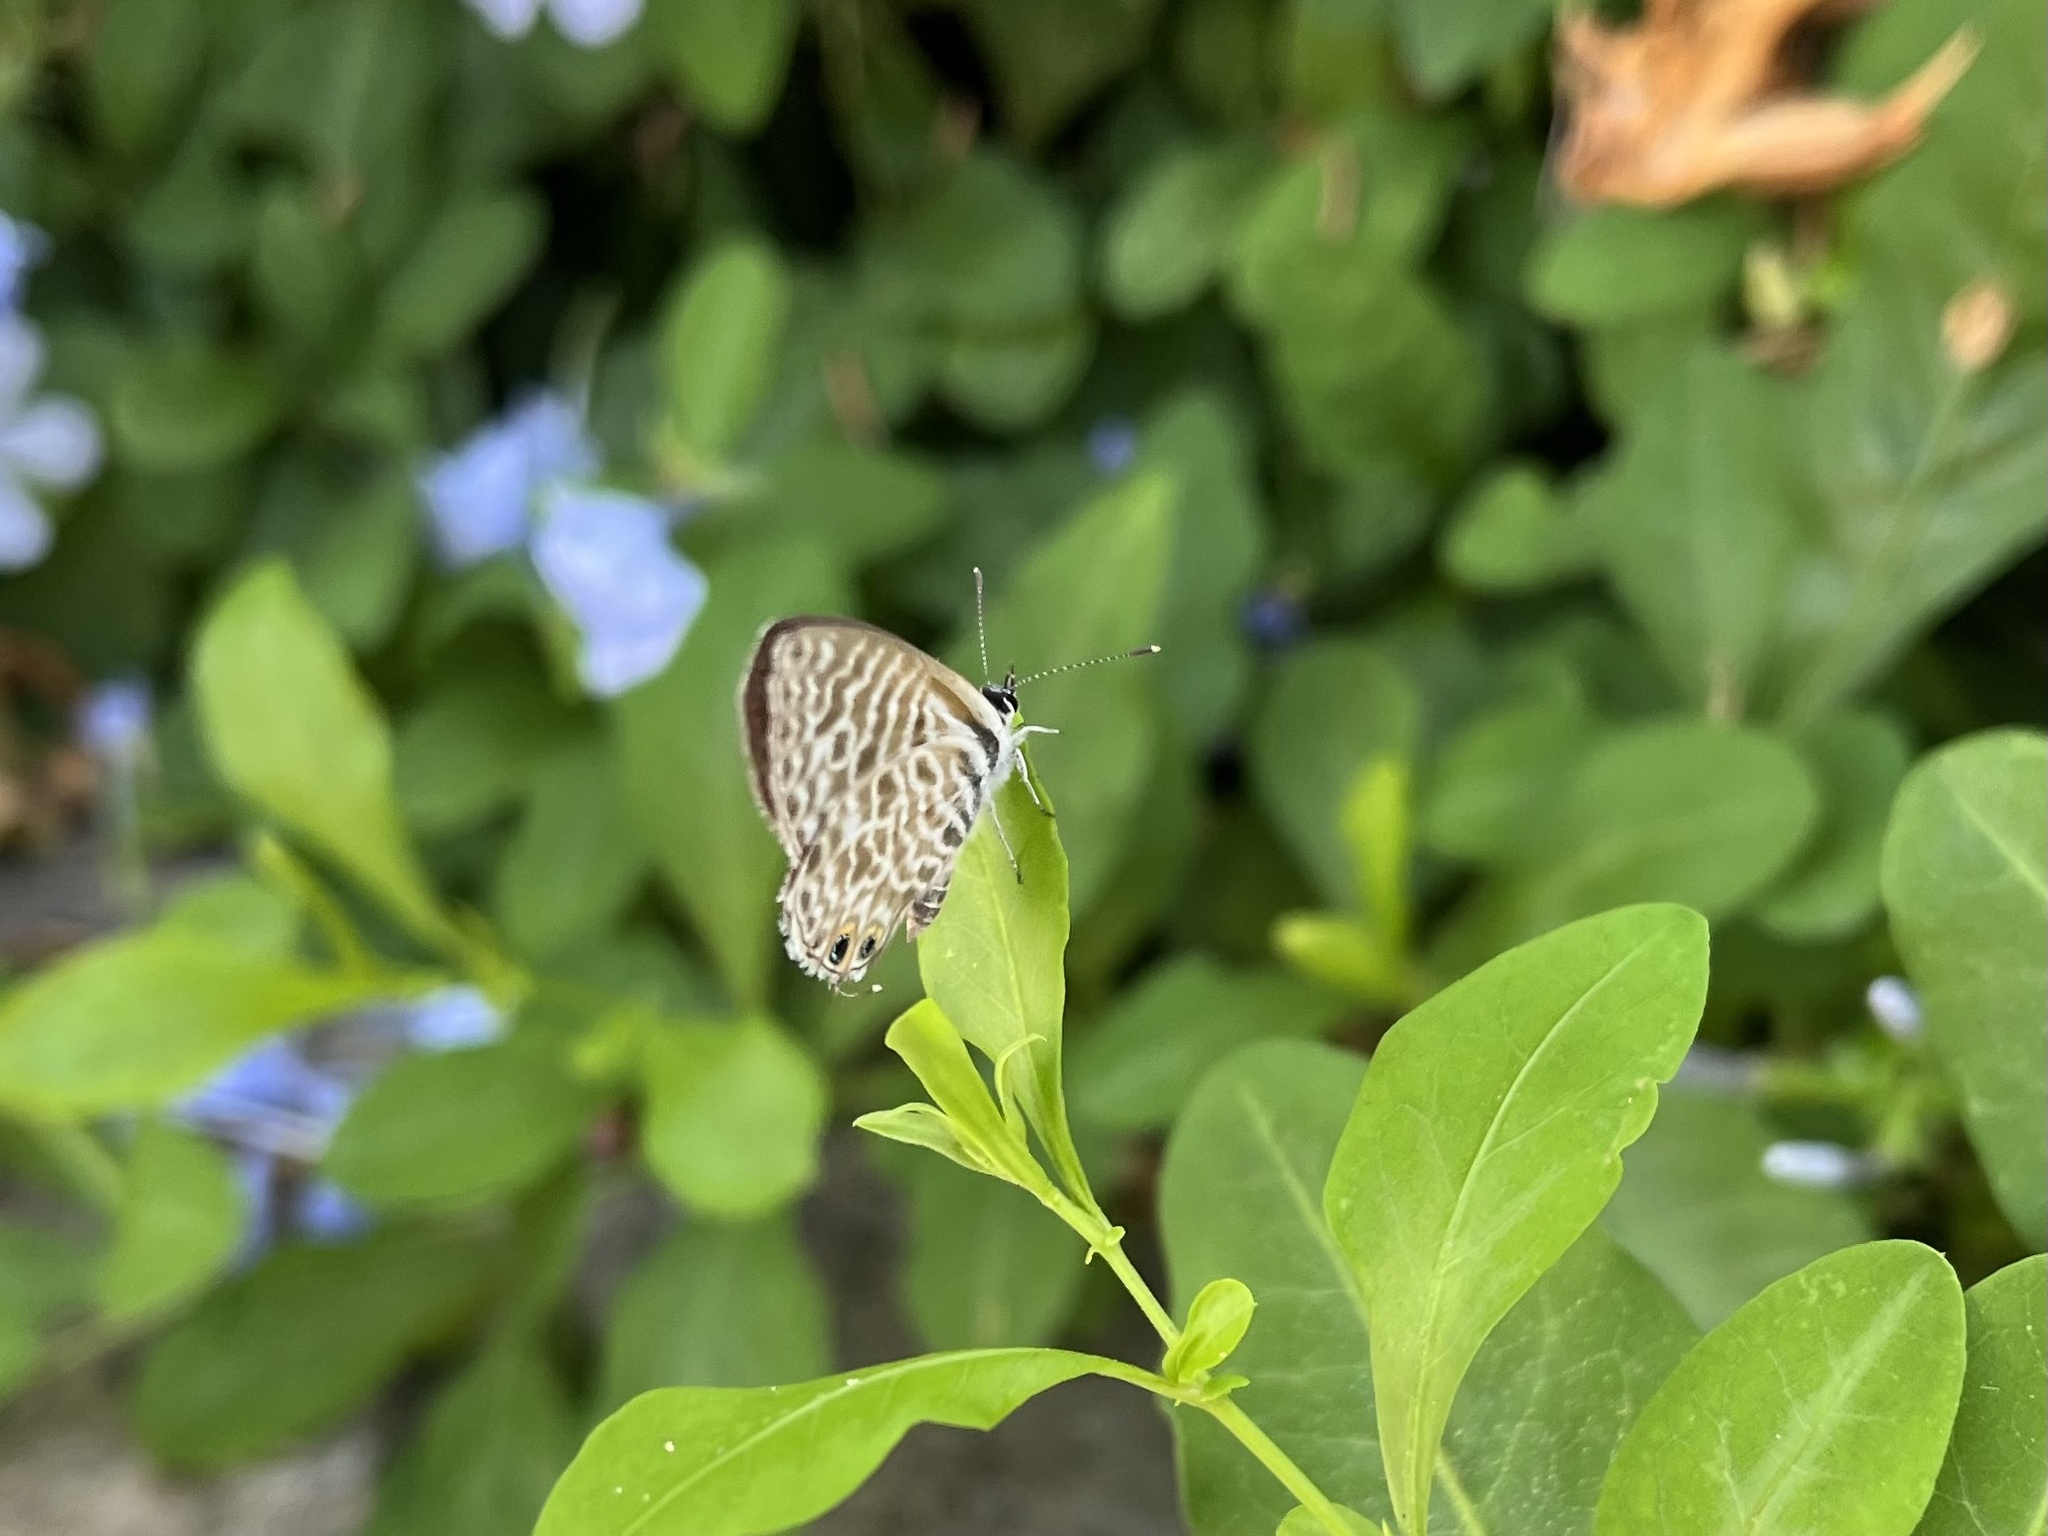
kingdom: Animalia
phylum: Arthropoda
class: Insecta
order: Lepidoptera
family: Lycaenidae
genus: Leptotes
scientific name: Leptotes pirithous
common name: Lang's short-tailed blue
